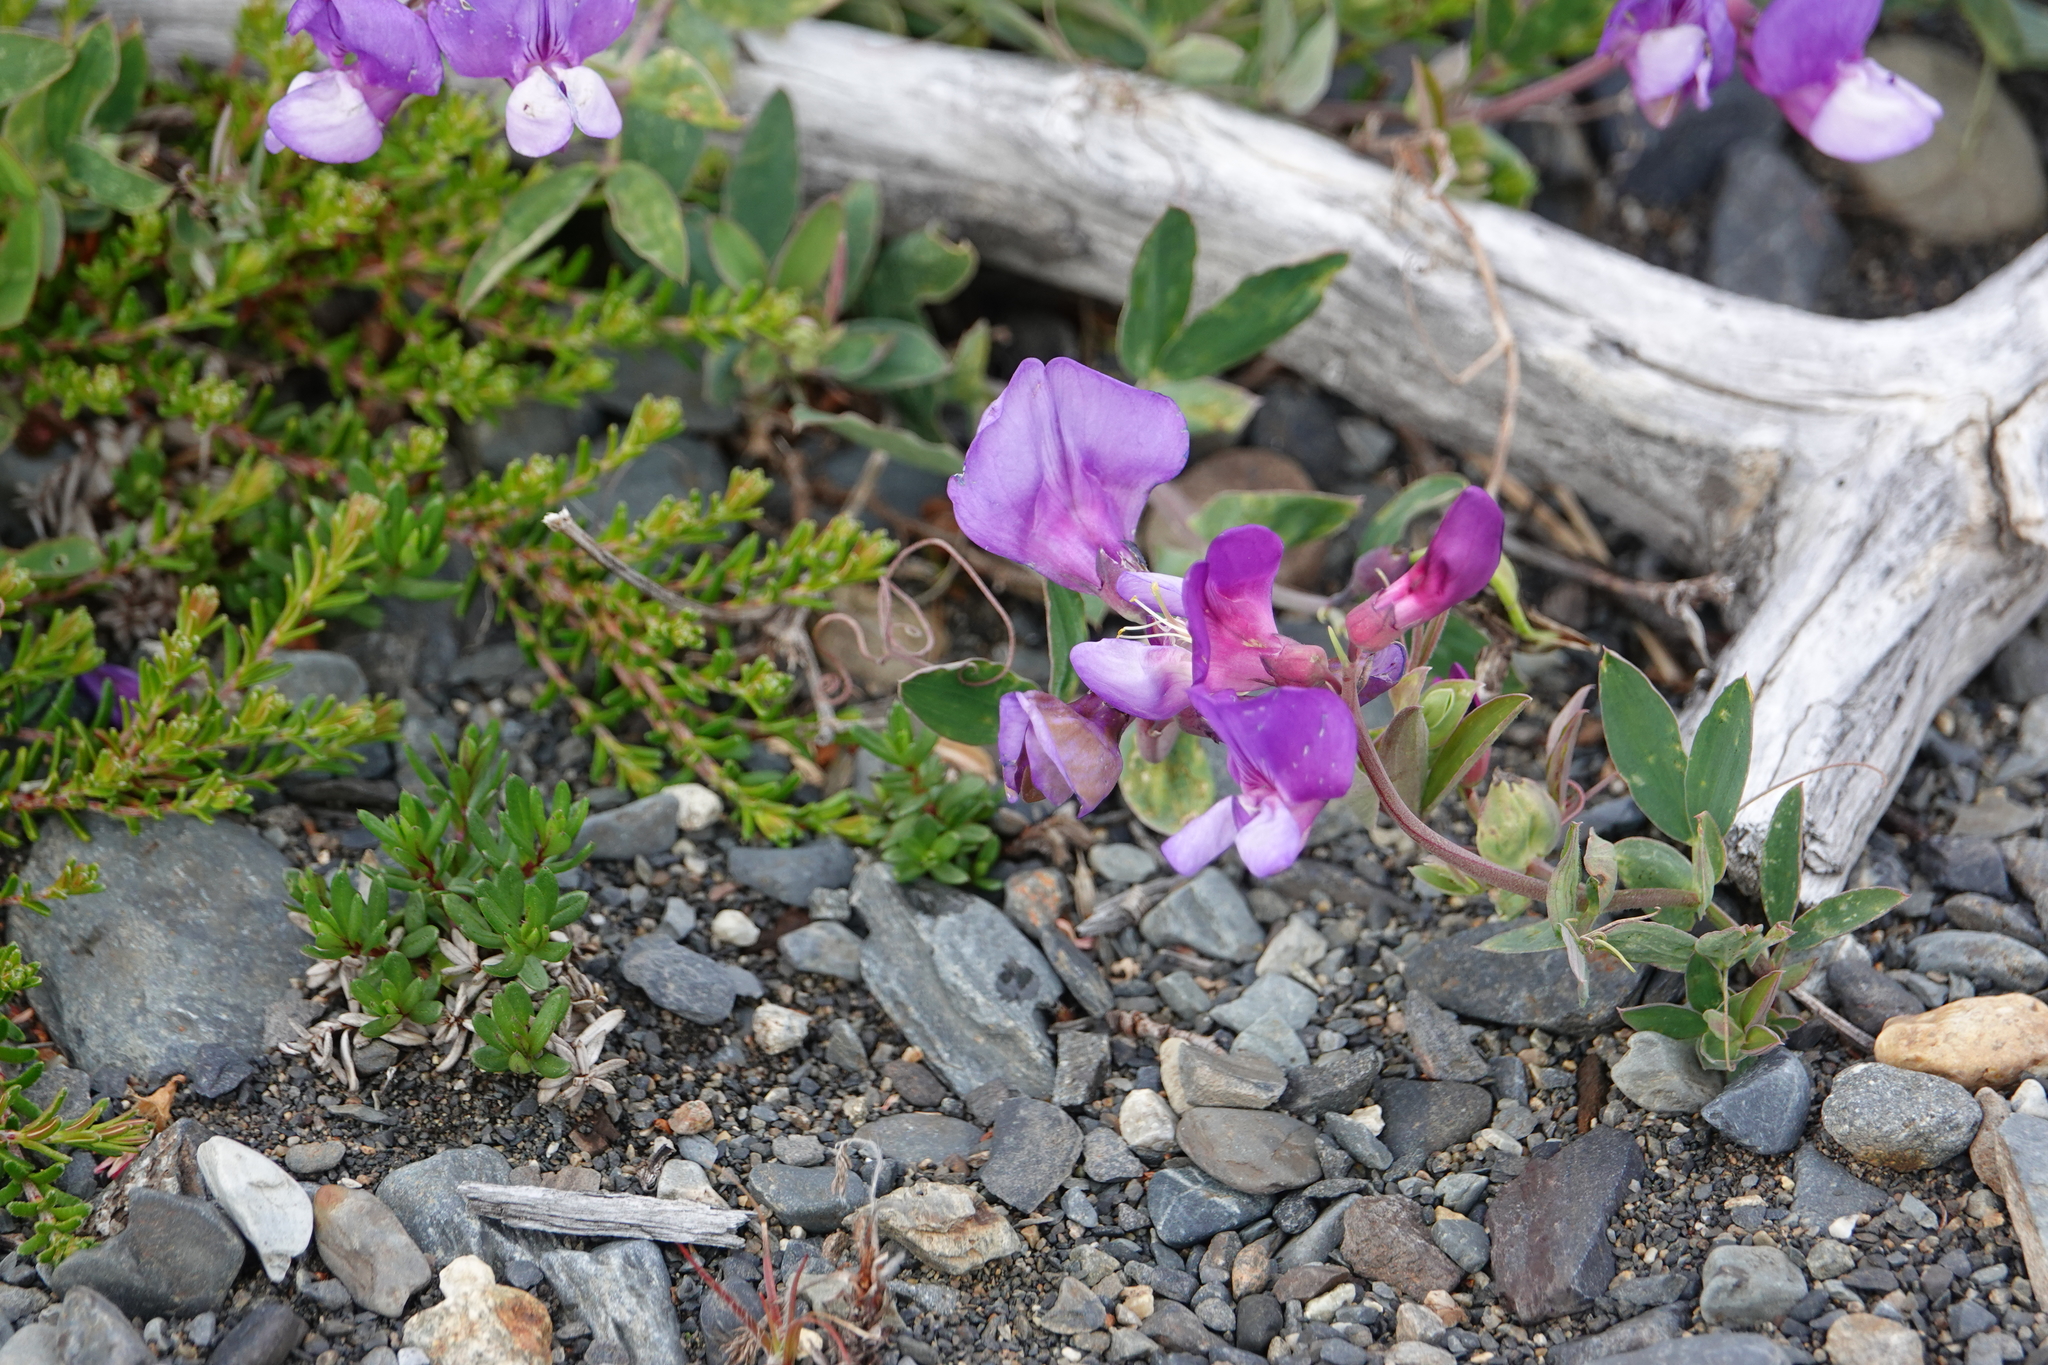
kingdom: Plantae
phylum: Tracheophyta
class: Magnoliopsida
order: Fabales
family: Fabaceae
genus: Lathyrus
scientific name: Lathyrus magellanicus
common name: Lord anson's pea
